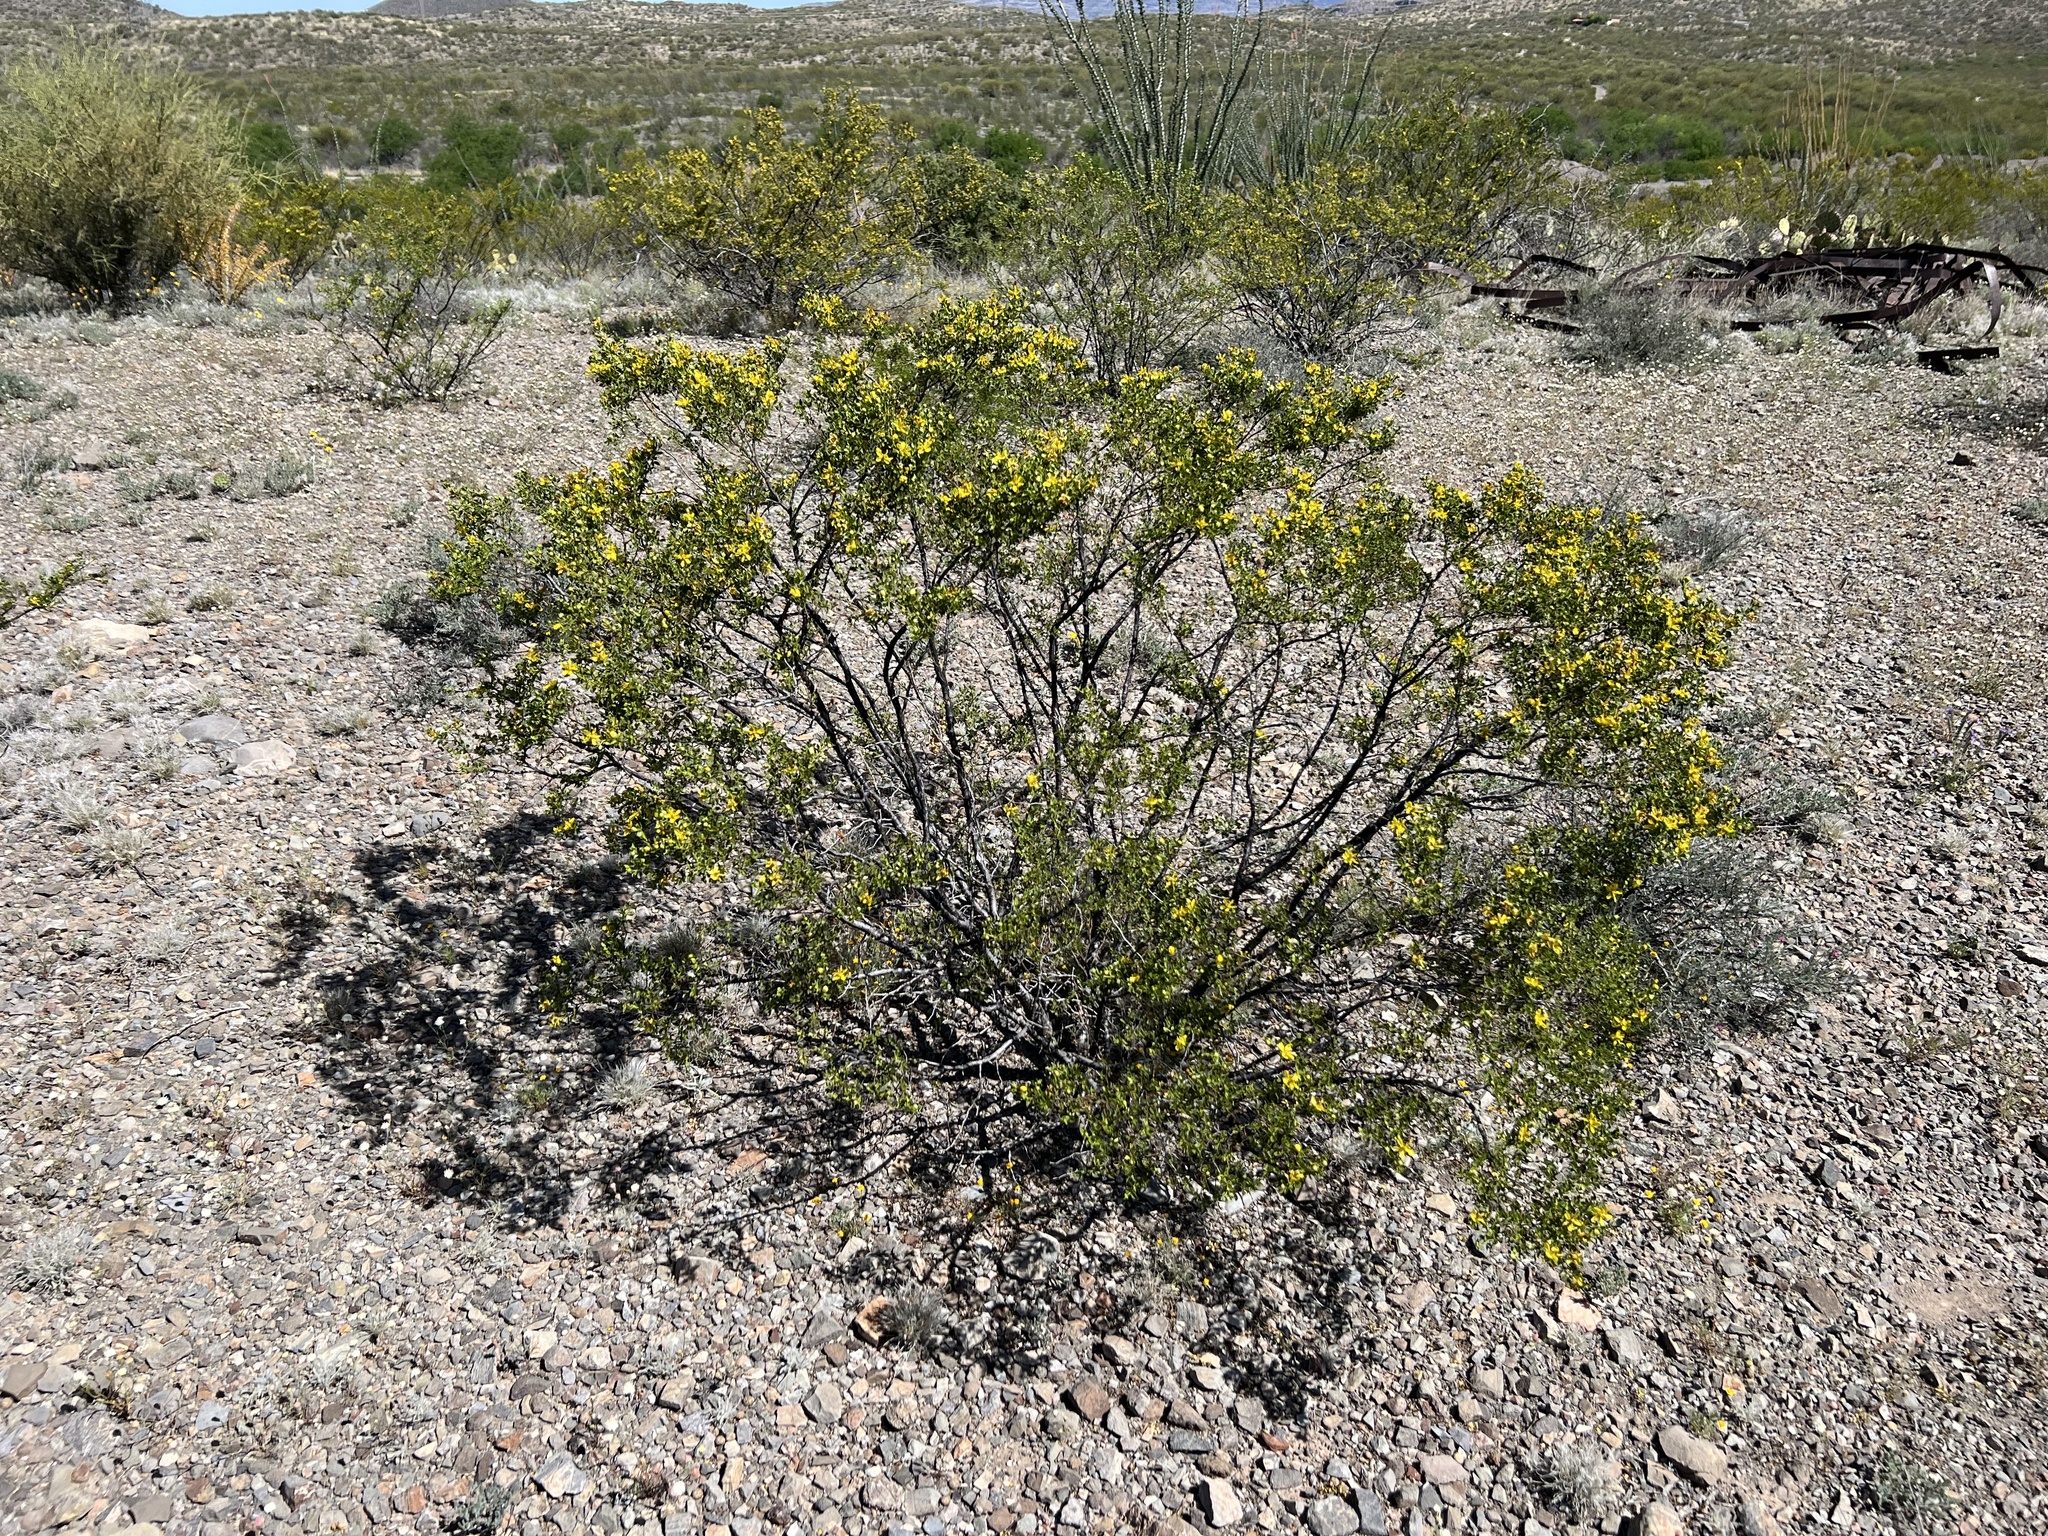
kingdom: Plantae
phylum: Tracheophyta
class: Magnoliopsida
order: Zygophyllales
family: Zygophyllaceae
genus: Larrea
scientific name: Larrea tridentata
